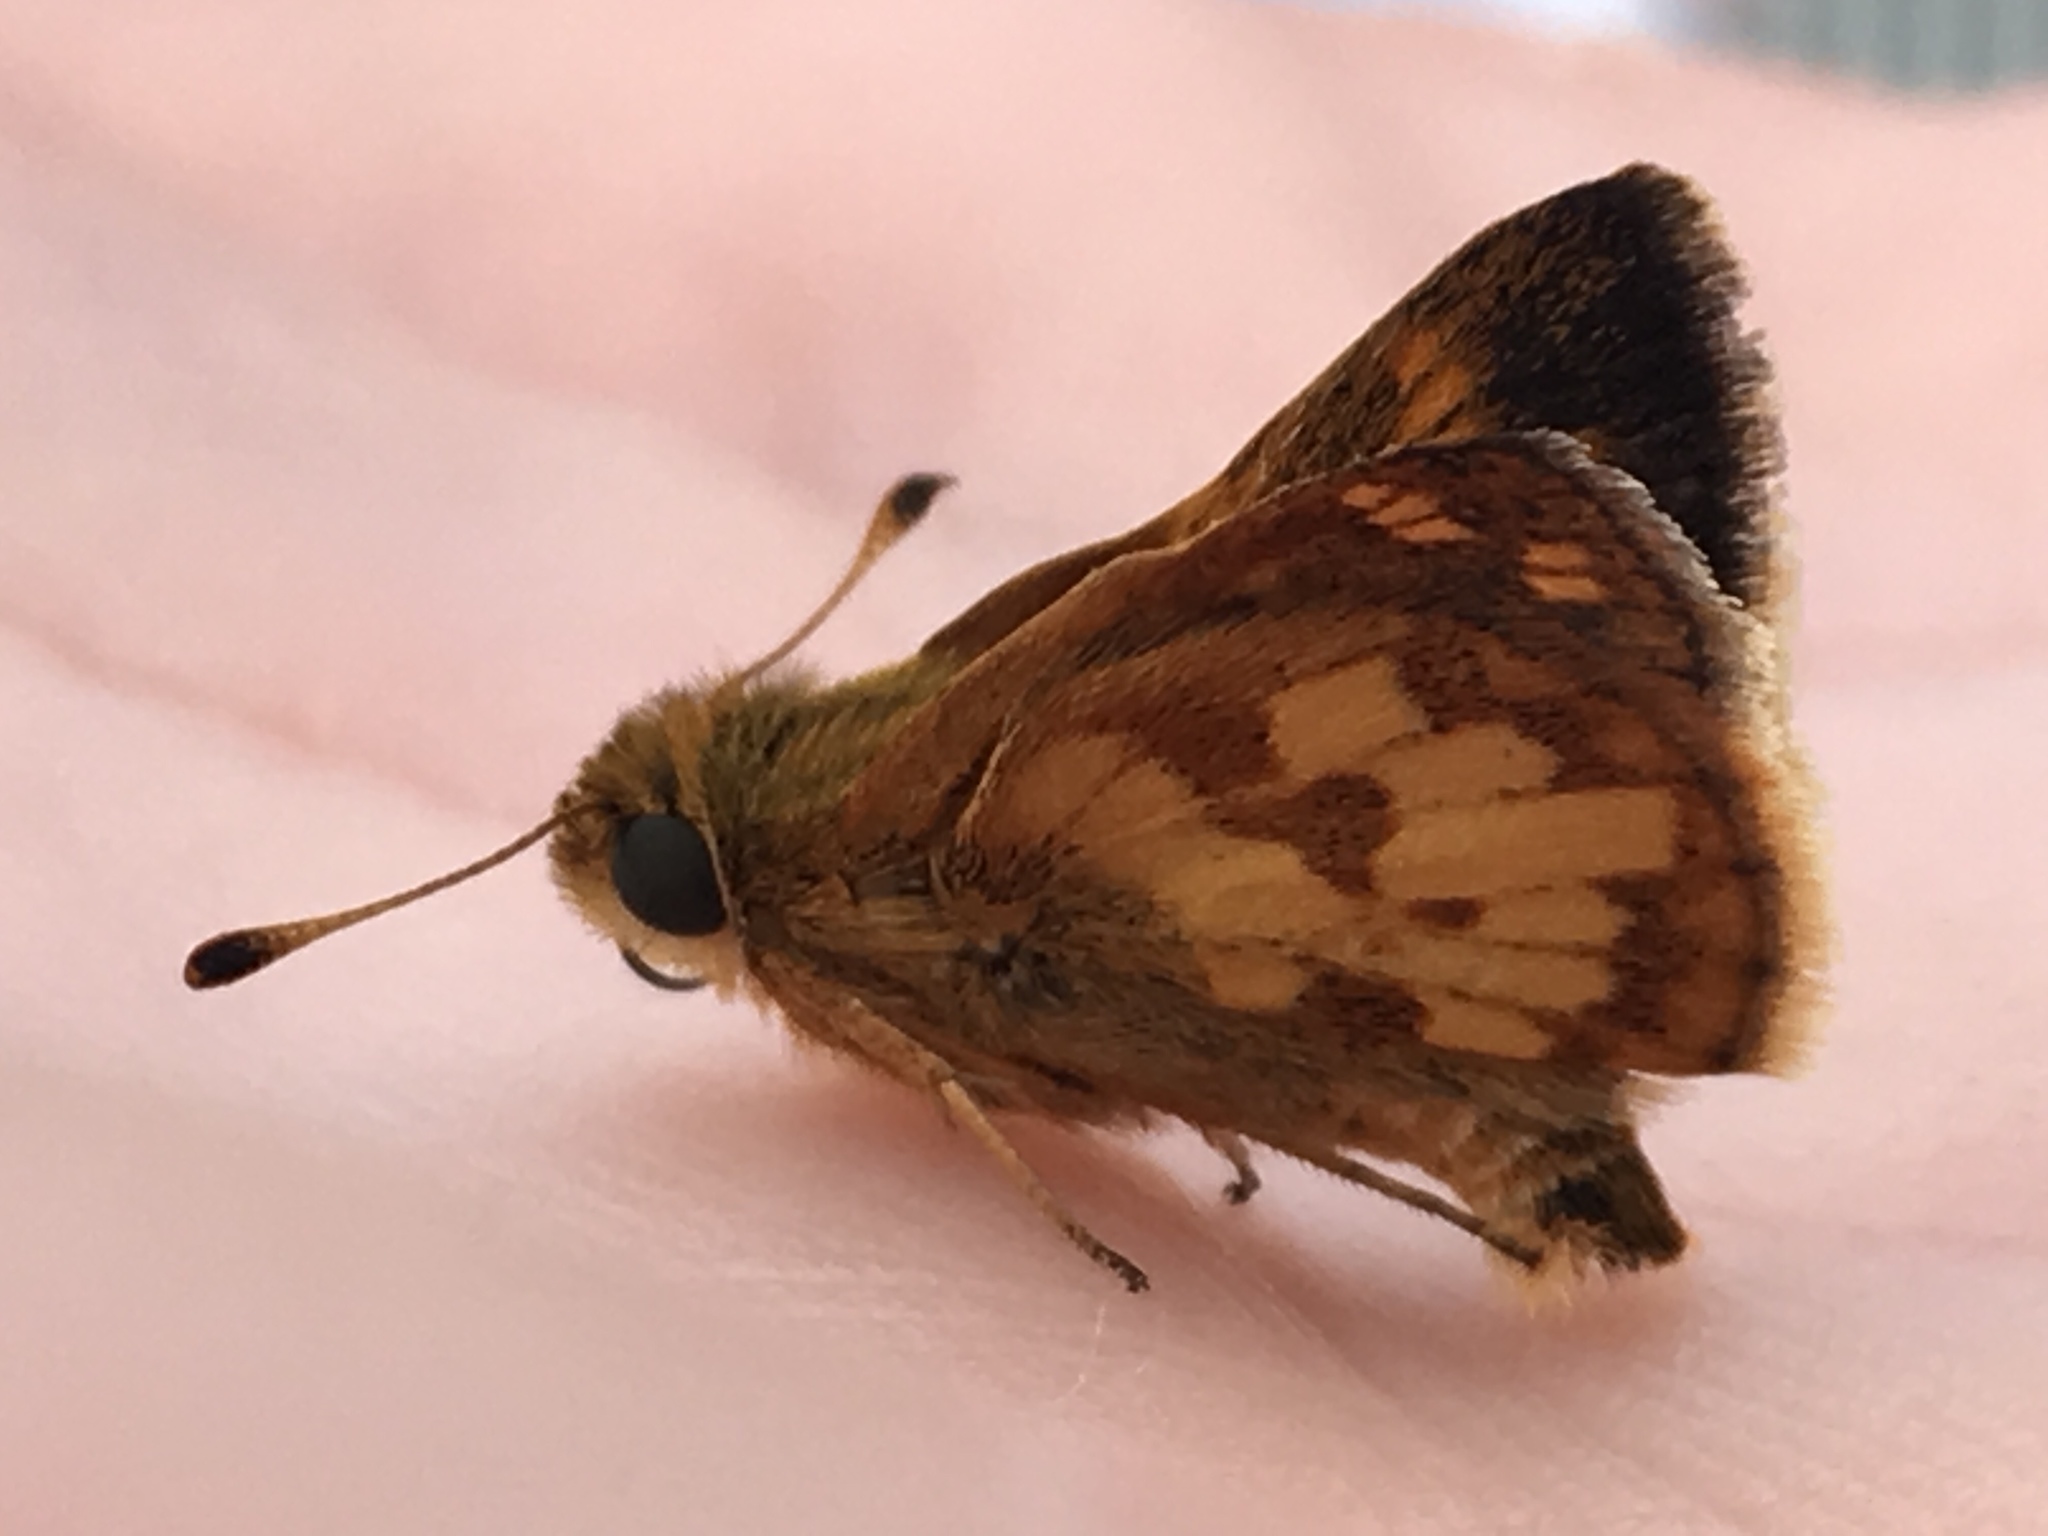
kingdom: Animalia
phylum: Arthropoda
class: Insecta
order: Lepidoptera
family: Hesperiidae
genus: Polites
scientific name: Polites coras
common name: Peck's skipper
